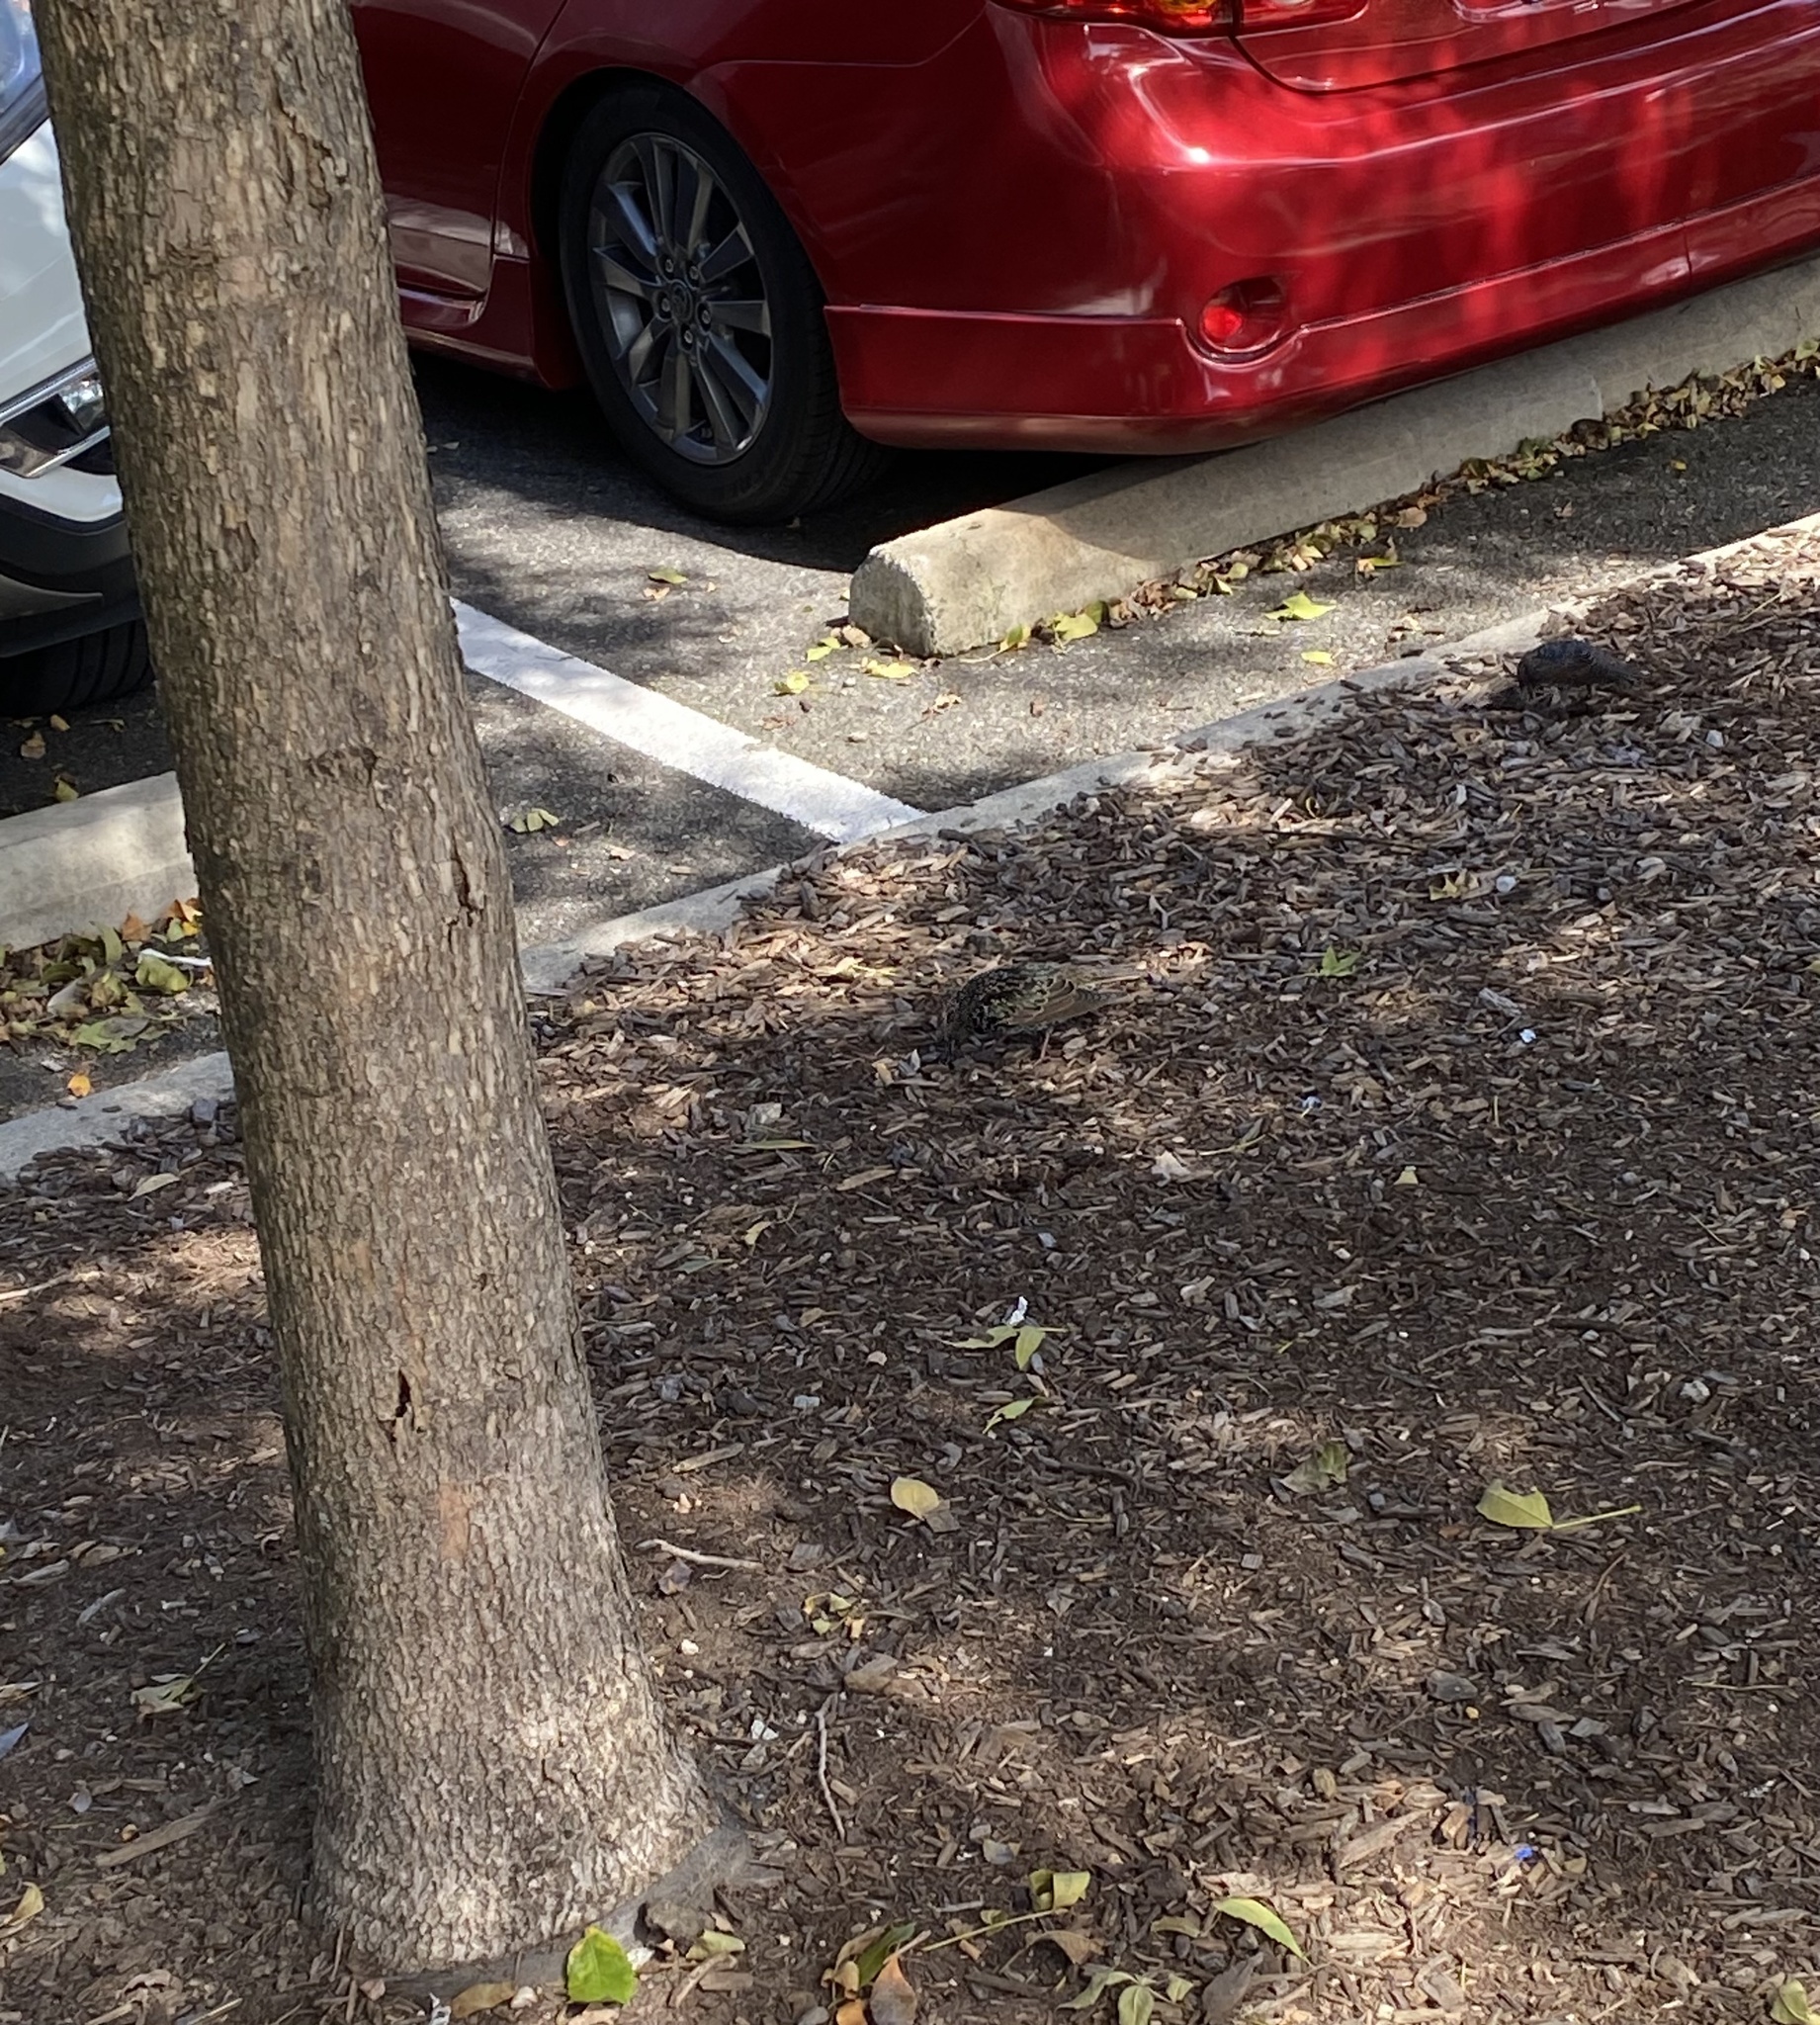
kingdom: Animalia
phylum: Chordata
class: Aves
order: Passeriformes
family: Sturnidae
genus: Sturnus
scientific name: Sturnus vulgaris
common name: Common starling
